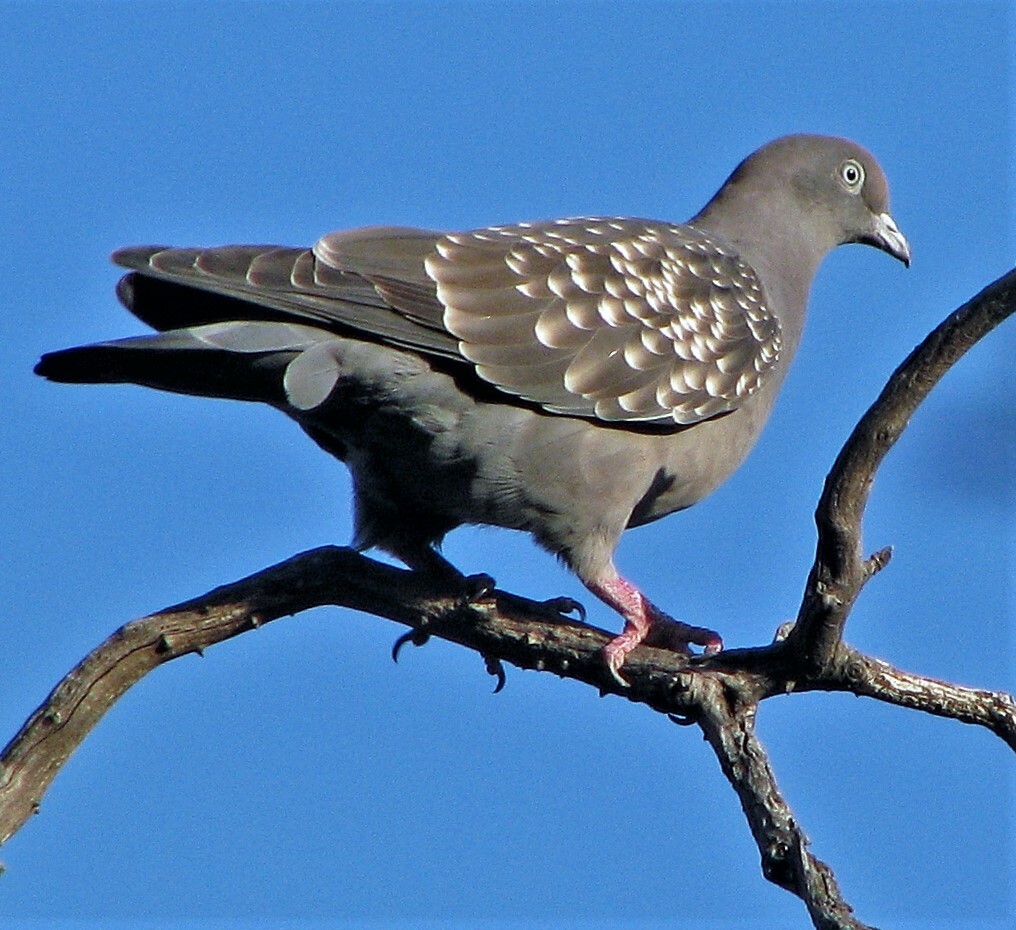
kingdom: Animalia
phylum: Chordata
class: Aves
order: Columbiformes
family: Columbidae
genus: Patagioenas
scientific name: Patagioenas maculosa
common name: Spot-winged pigeon
